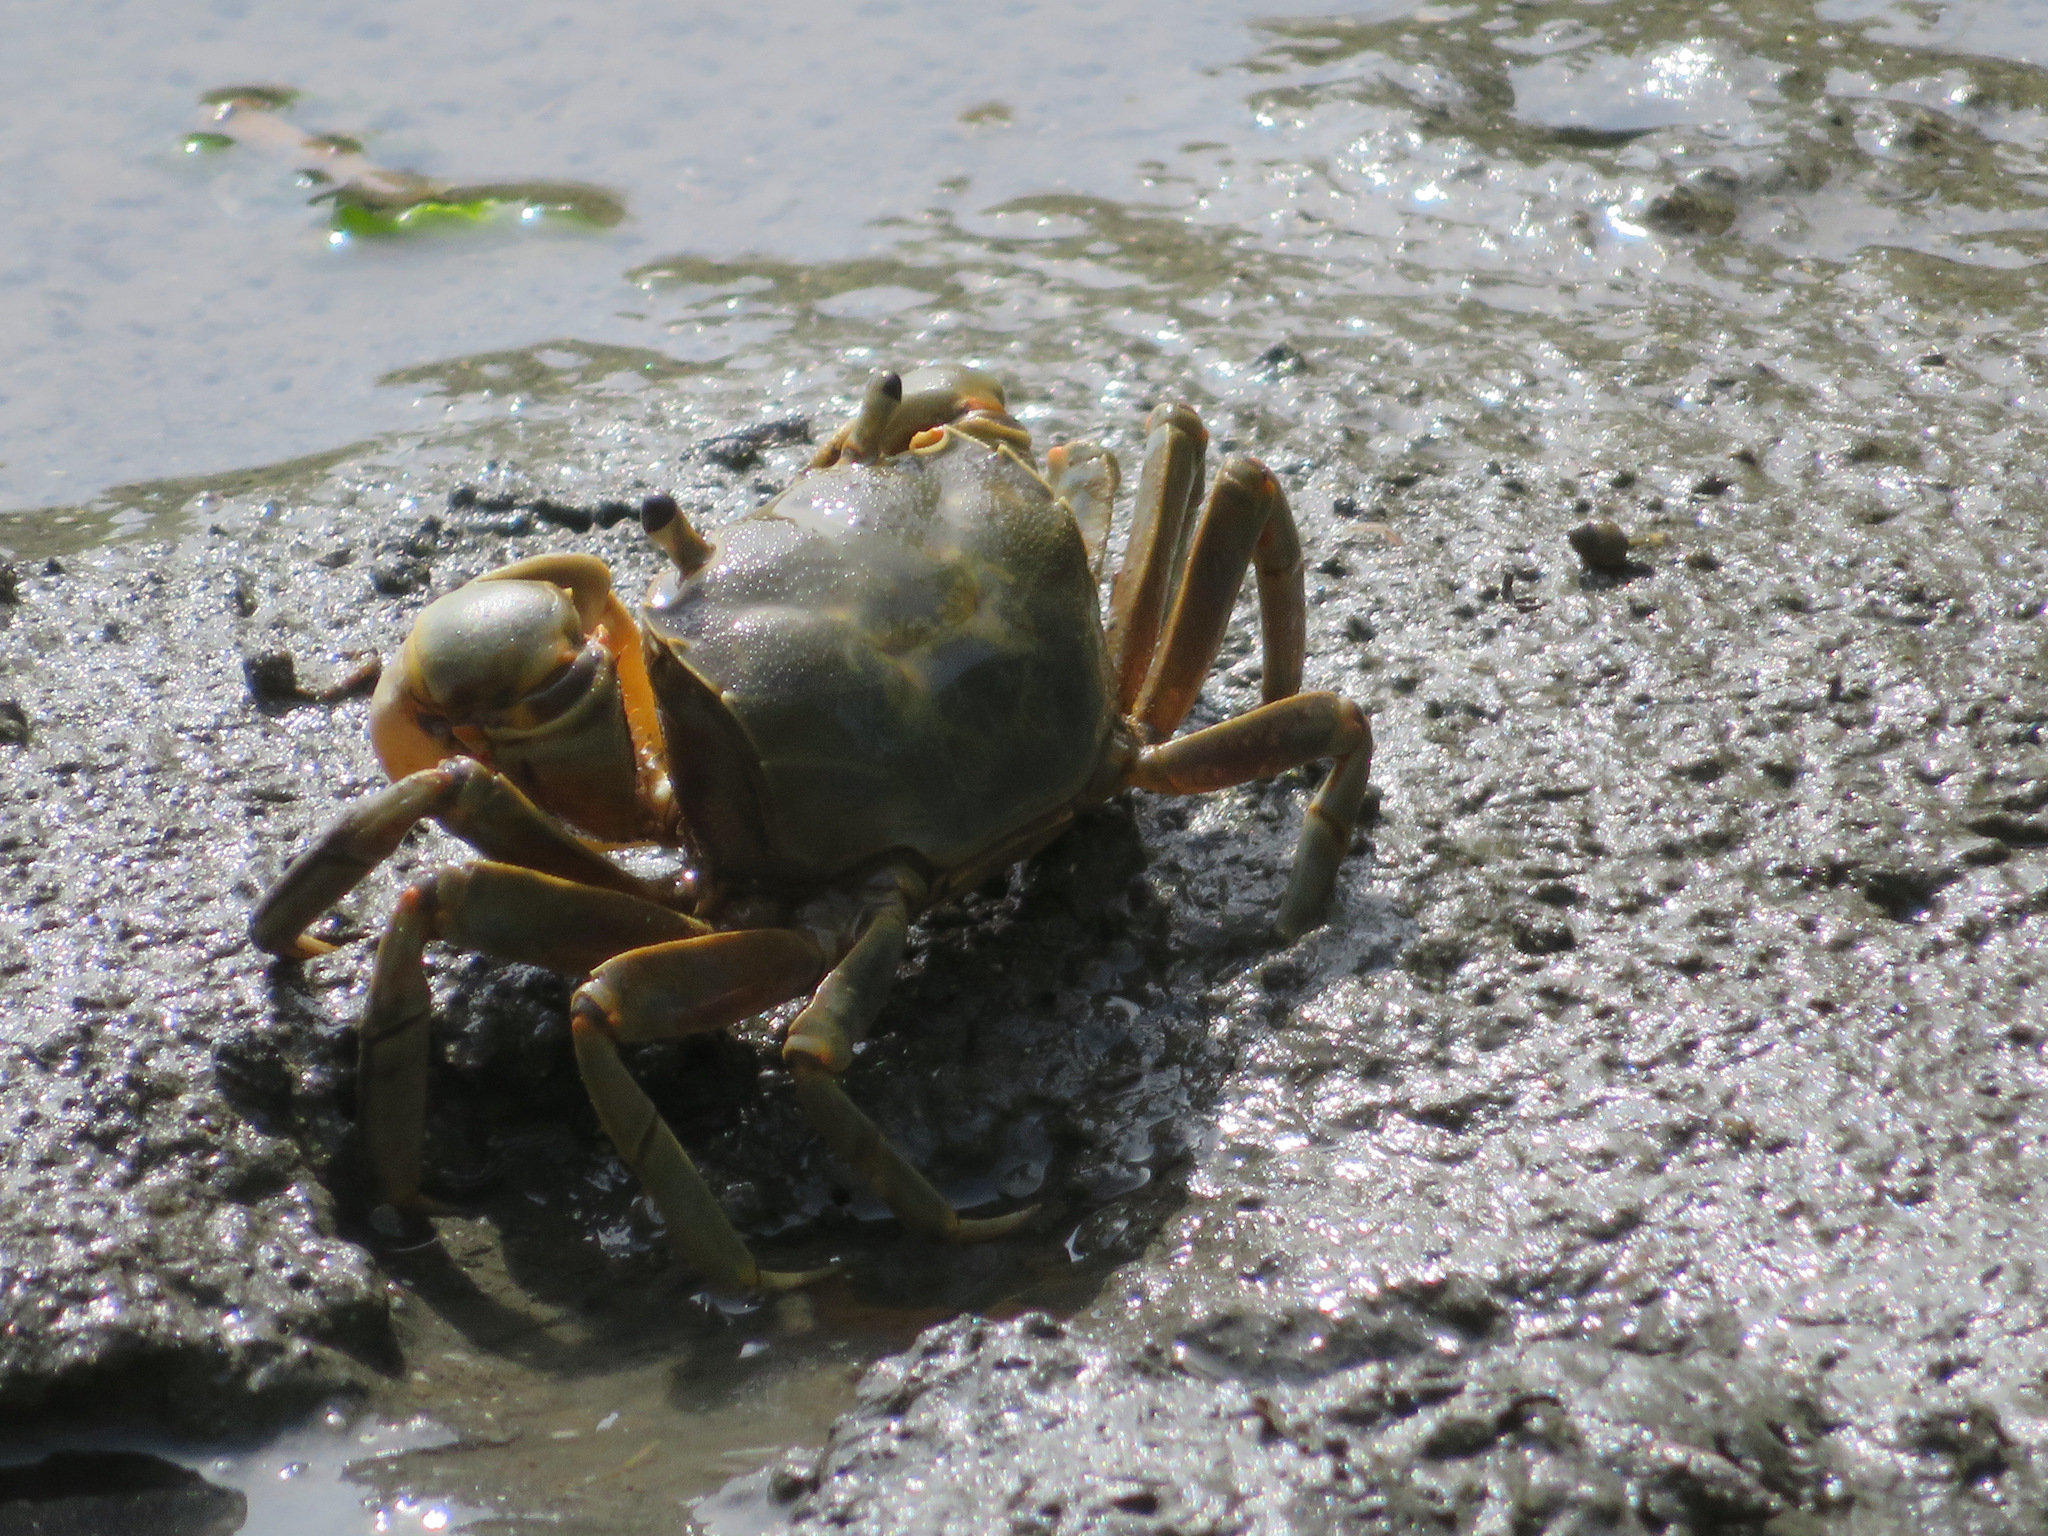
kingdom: Animalia
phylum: Arthropoda
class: Malacostraca
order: Decapoda
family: Varunidae
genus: Helice
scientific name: Helice tridens
